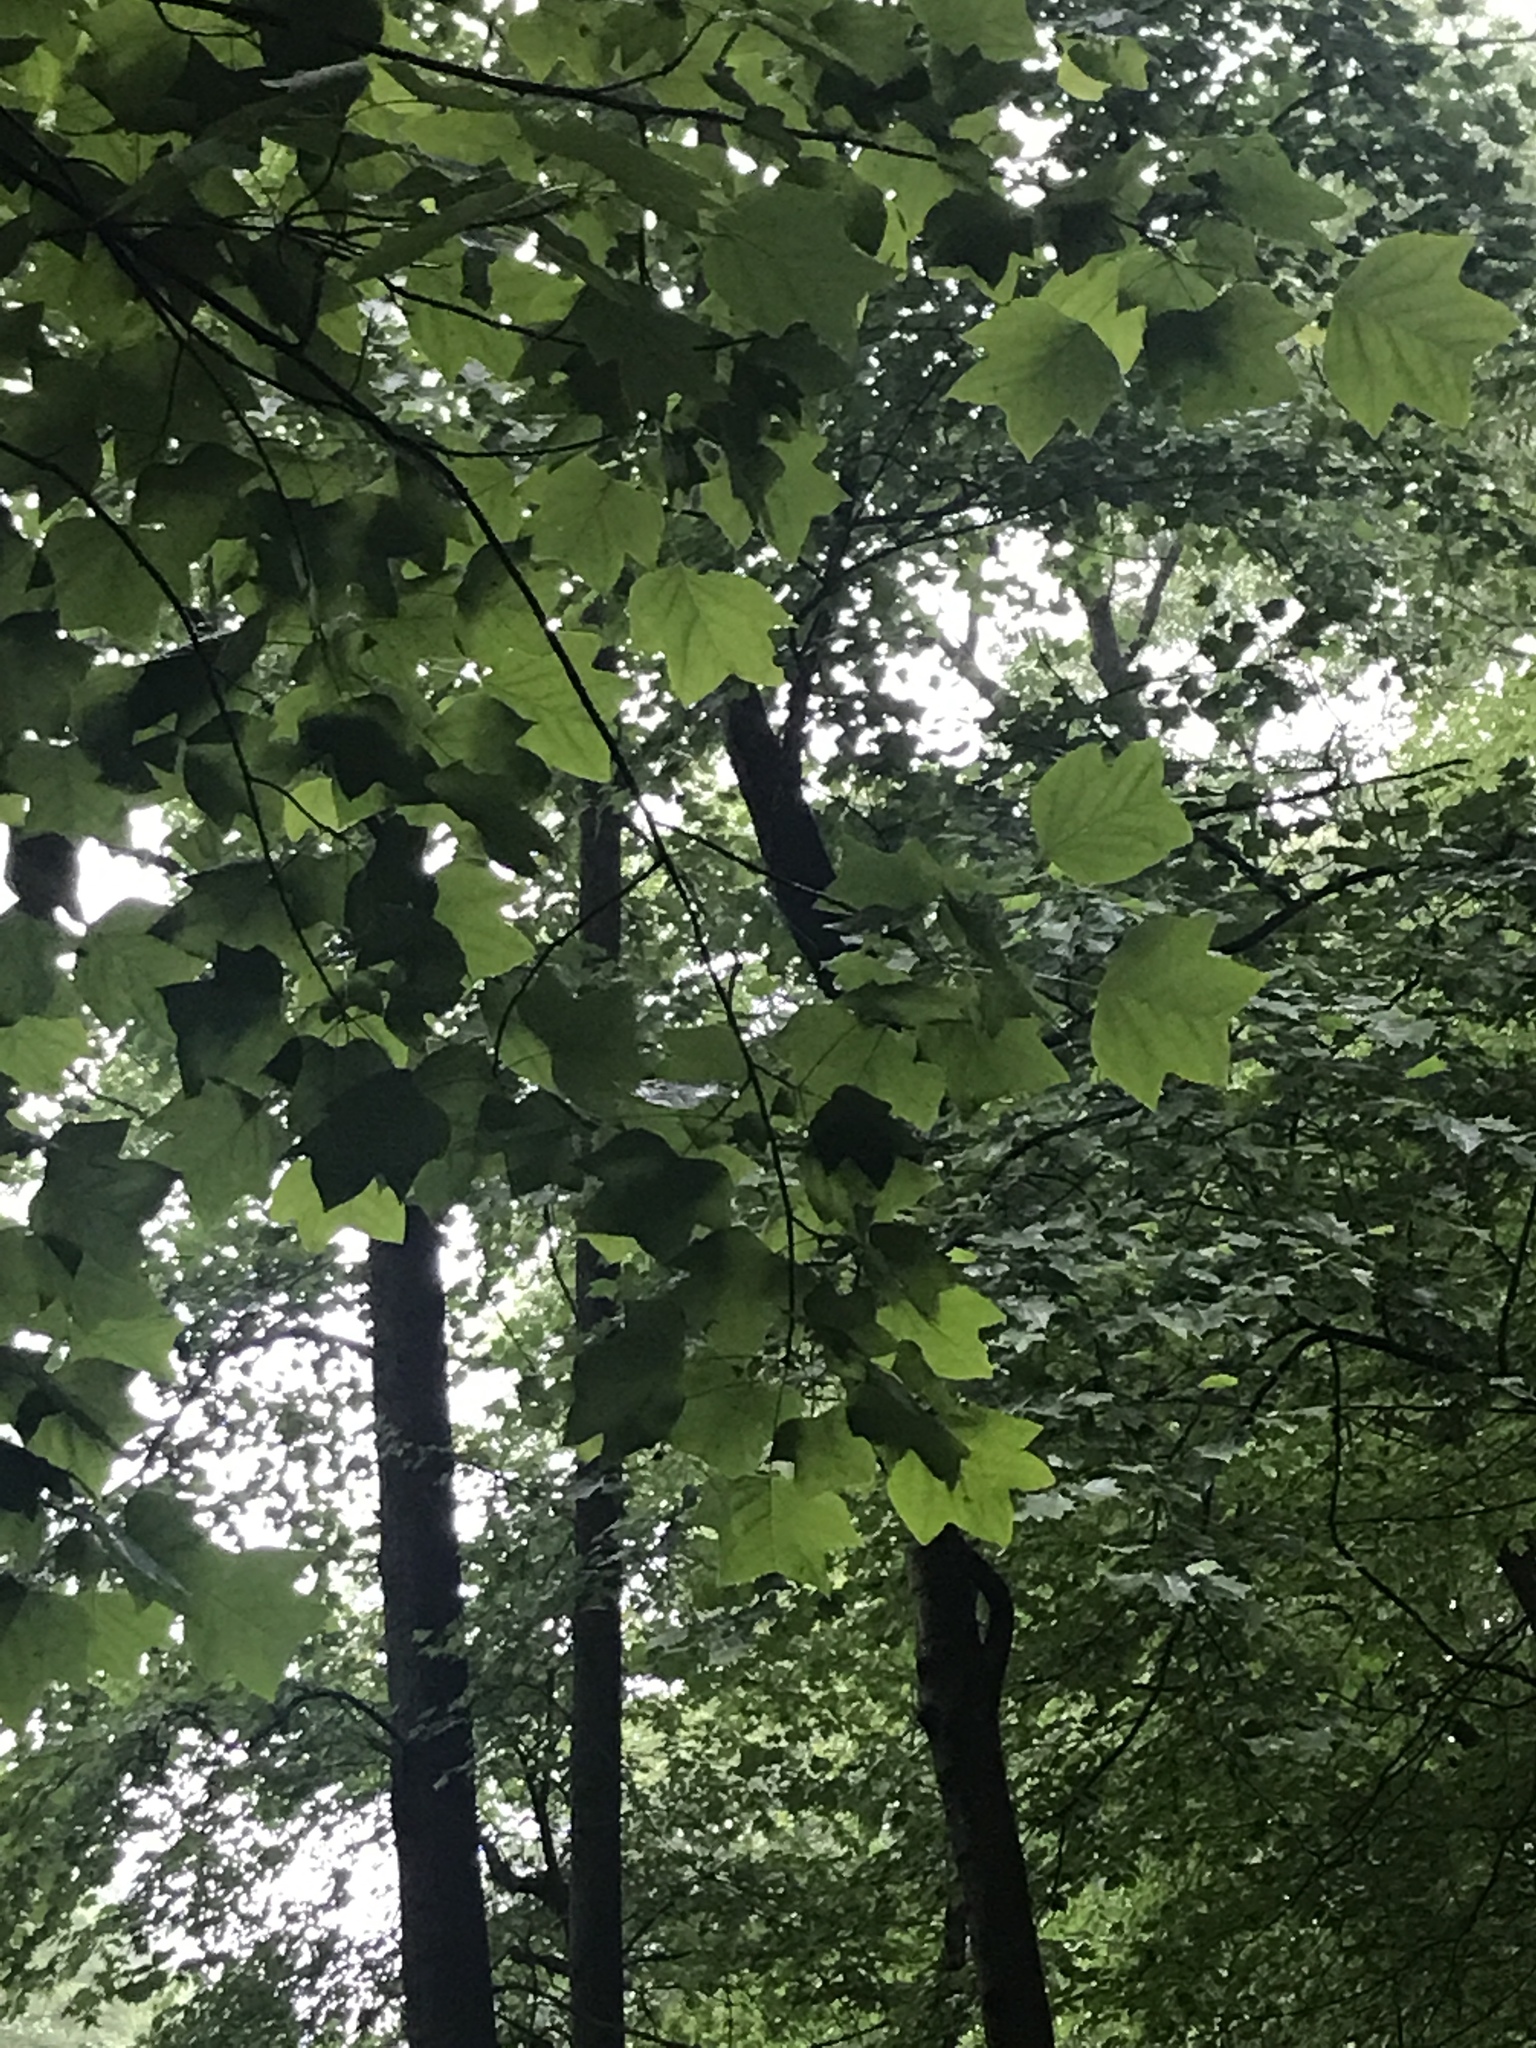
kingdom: Plantae
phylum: Tracheophyta
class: Magnoliopsida
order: Magnoliales
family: Magnoliaceae
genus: Liriodendron
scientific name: Liriodendron tulipifera
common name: Tulip tree
